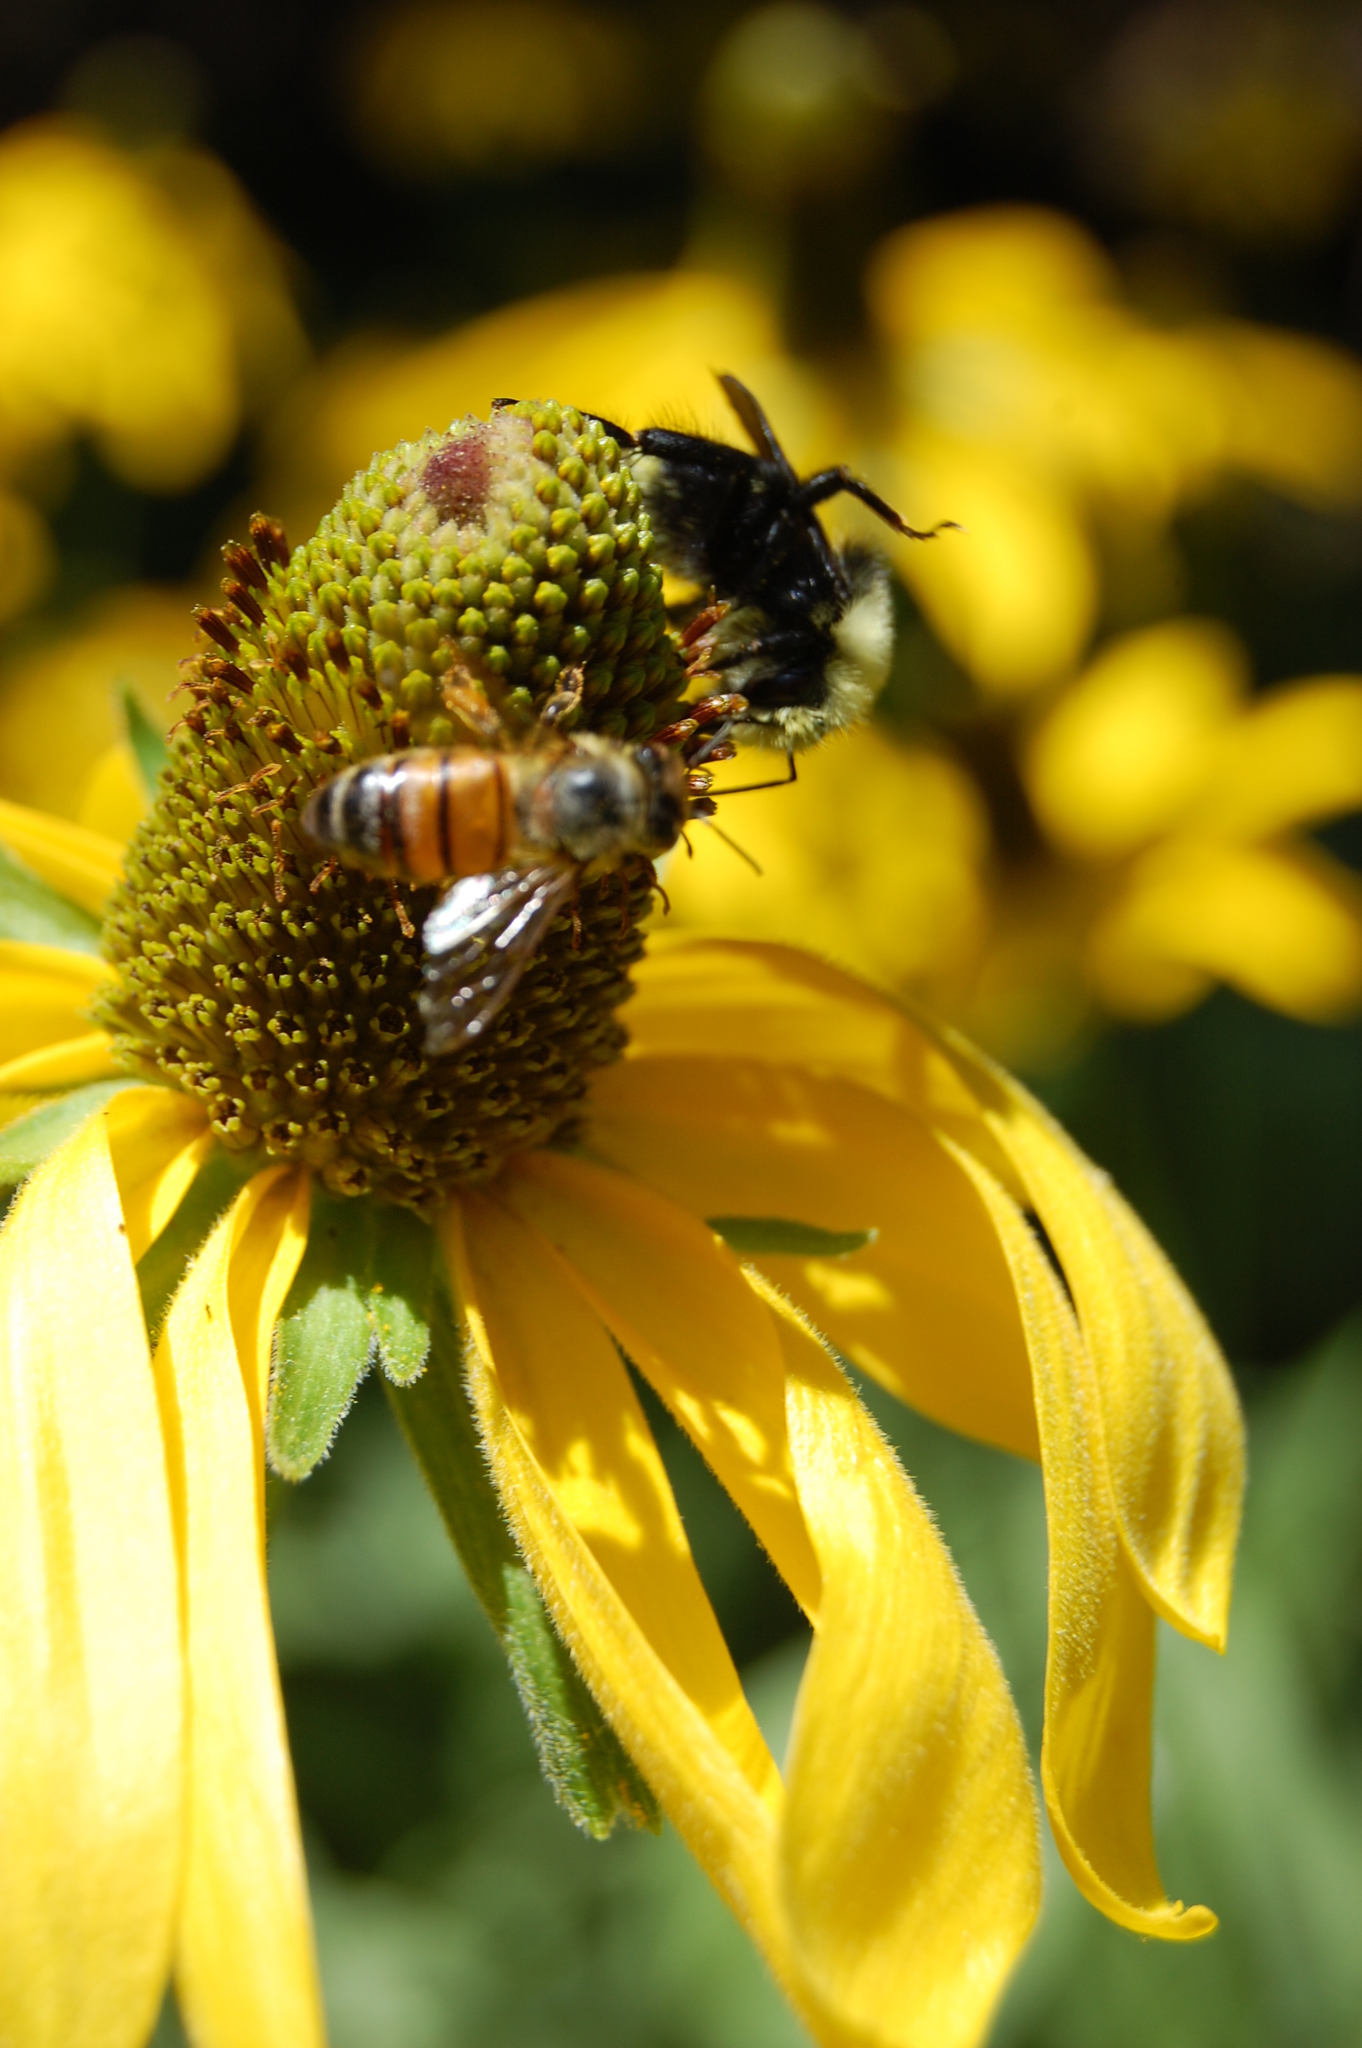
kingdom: Animalia
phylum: Arthropoda
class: Insecta
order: Hymenoptera
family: Apidae
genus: Apis
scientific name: Apis mellifera
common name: Honey bee
